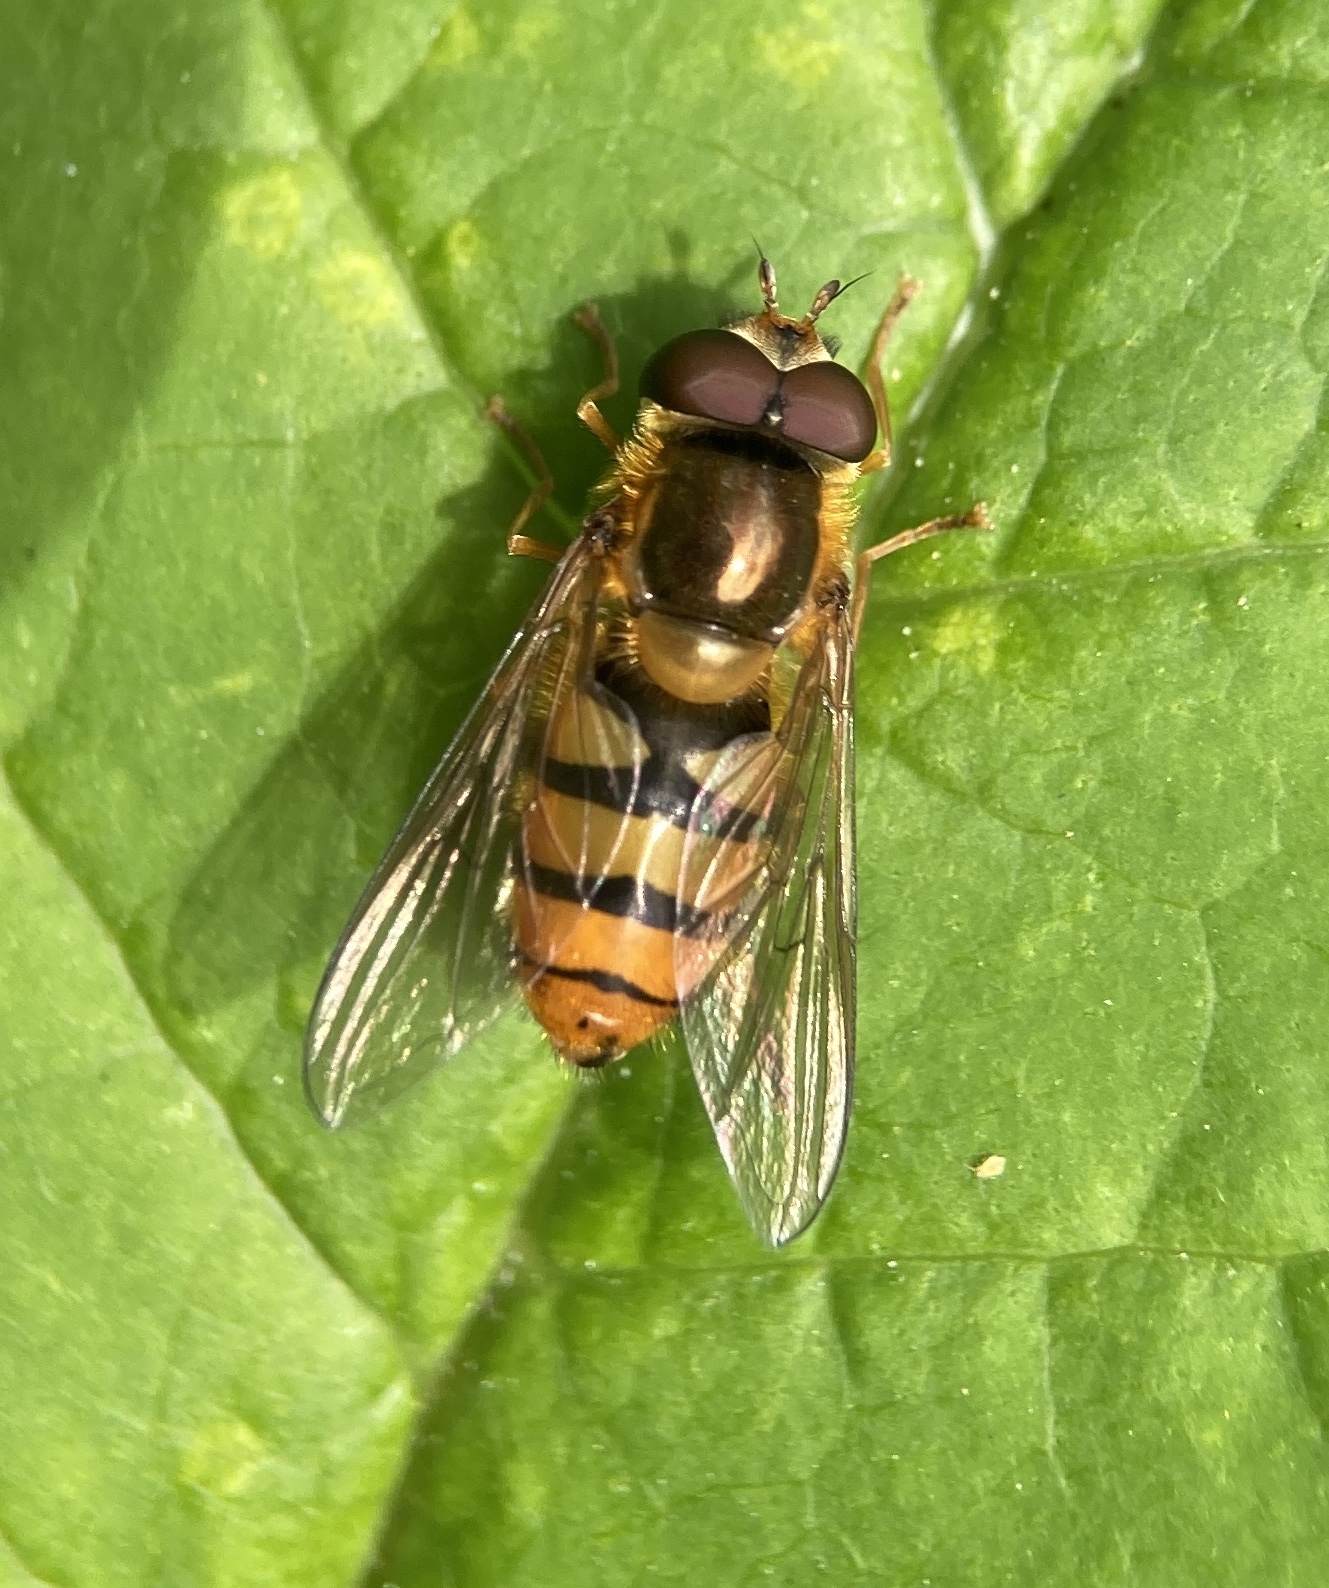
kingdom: Animalia
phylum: Arthropoda
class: Insecta
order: Diptera
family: Syrphidae
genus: Episyrphus
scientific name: Episyrphus balteatus
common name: Marmalade hoverfly
